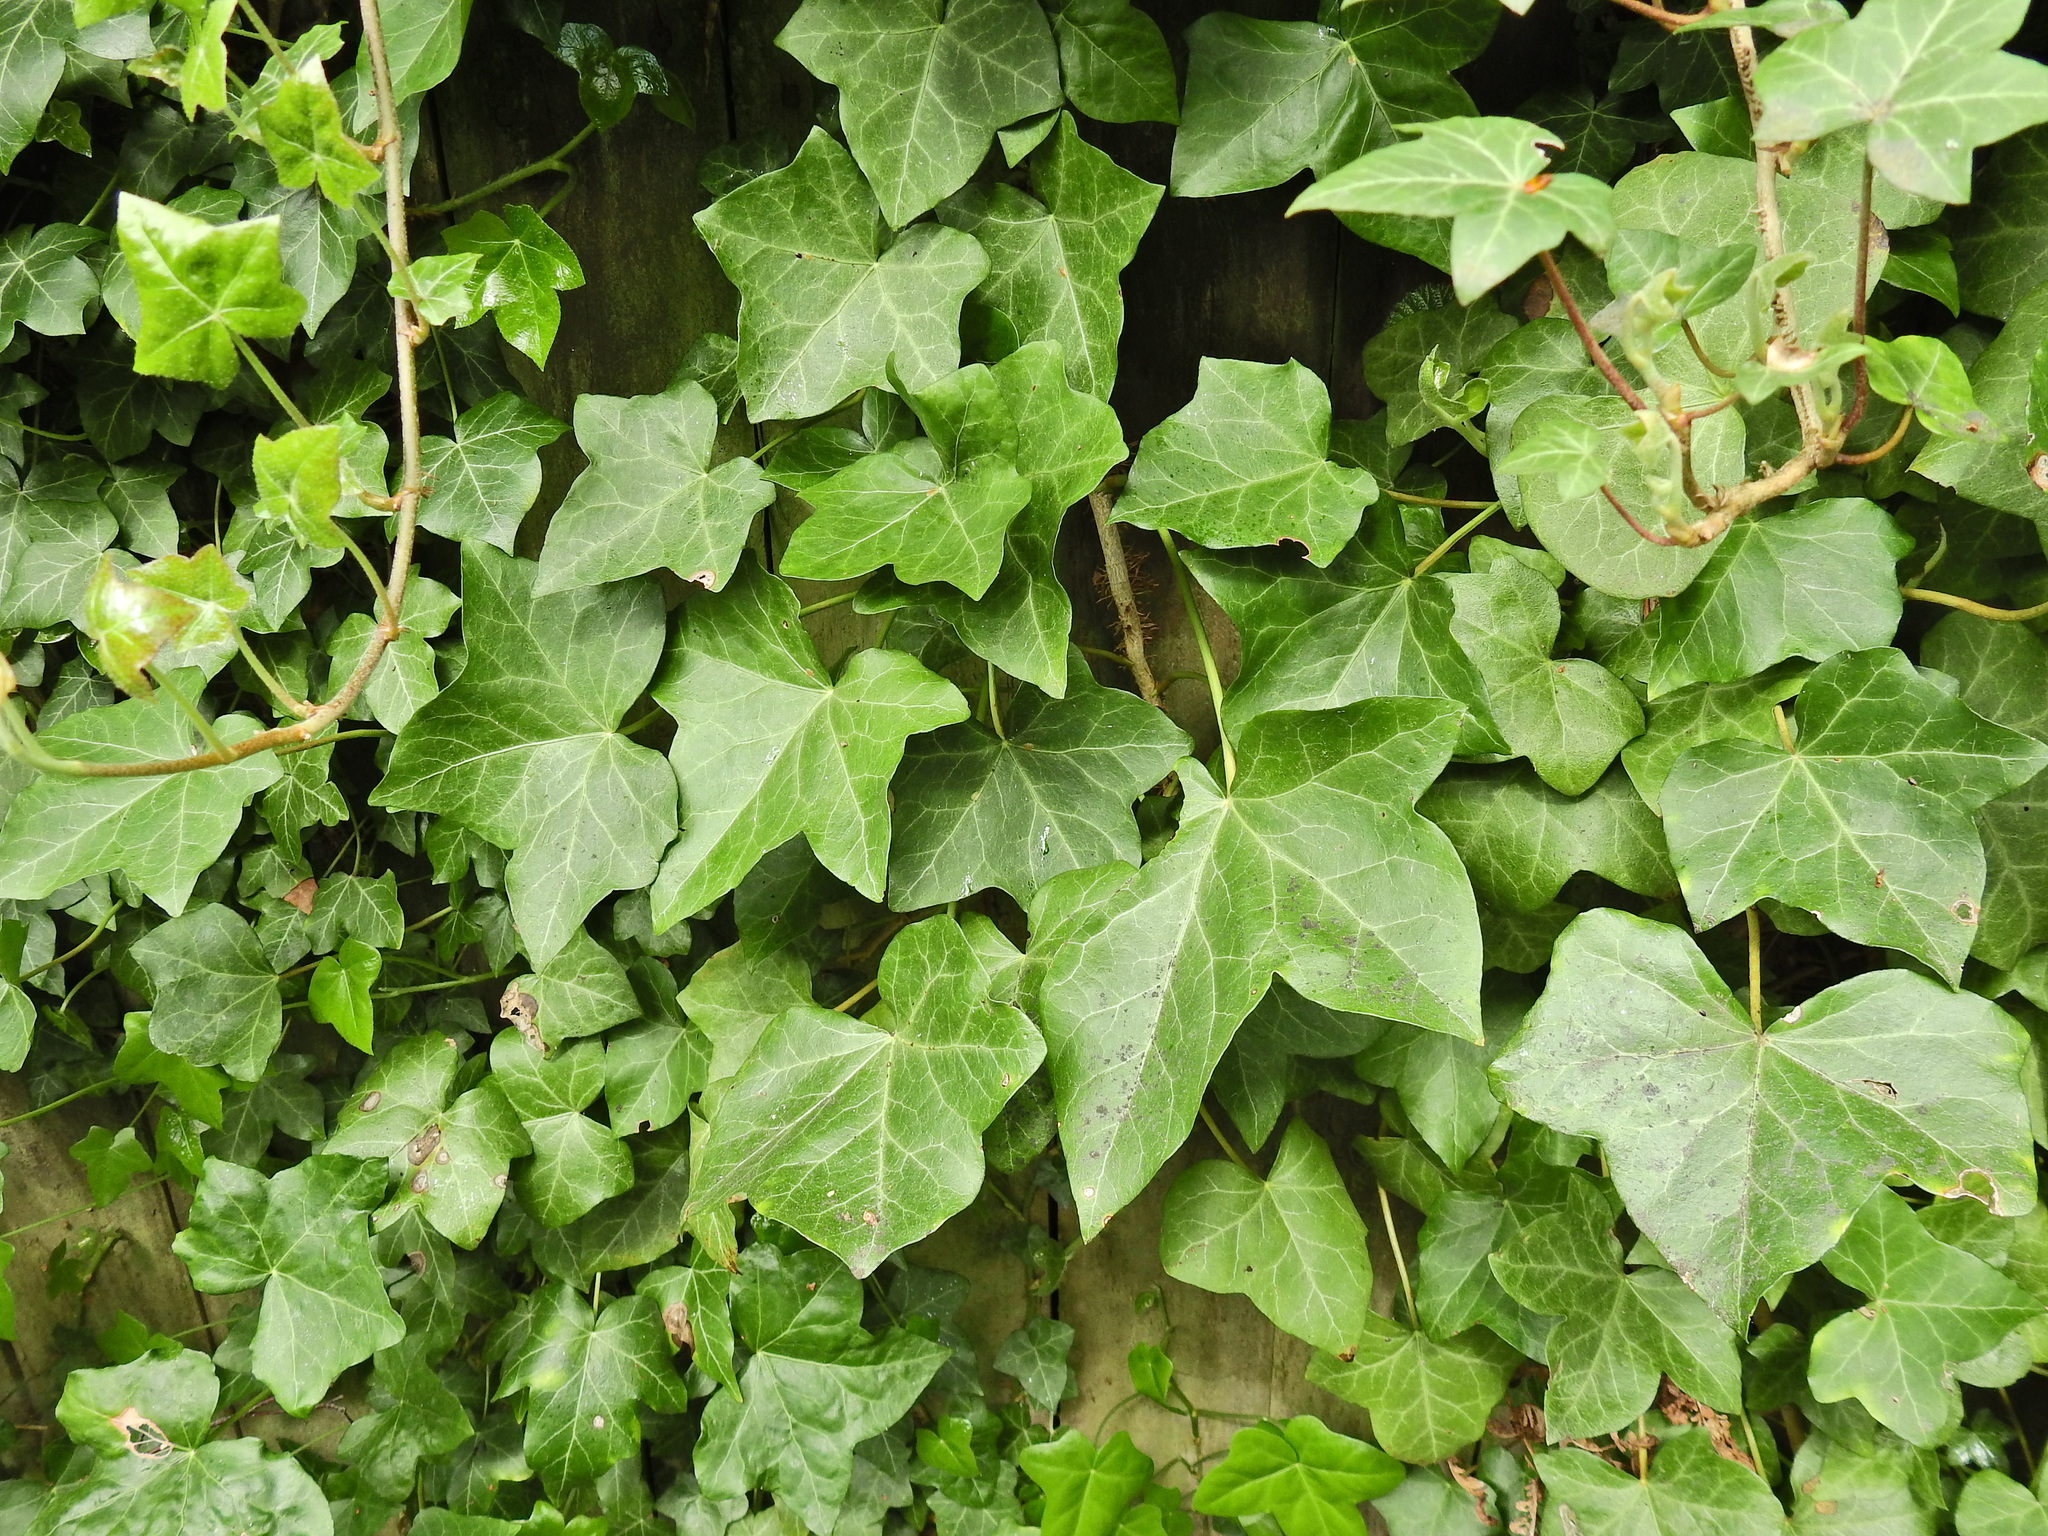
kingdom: Plantae
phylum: Tracheophyta
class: Magnoliopsida
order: Apiales
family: Araliaceae
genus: Hedera
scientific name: Hedera helix
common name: Ivy
